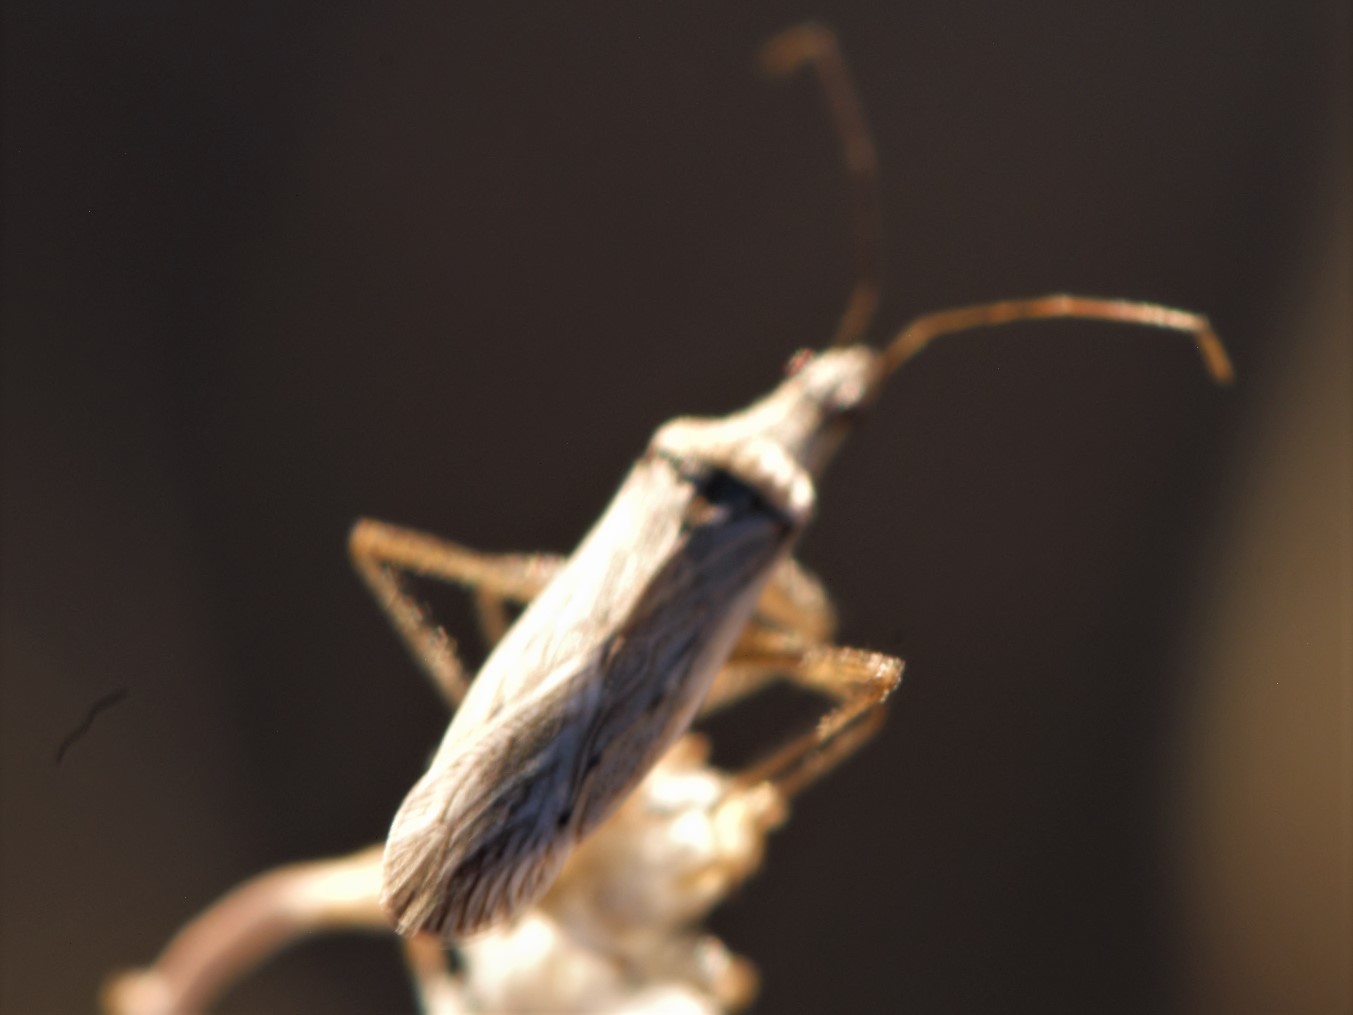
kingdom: Animalia
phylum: Arthropoda
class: Insecta
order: Hemiptera
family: Nabidae
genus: Nabis
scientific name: Nabis americoferus
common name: Common damsel bug
